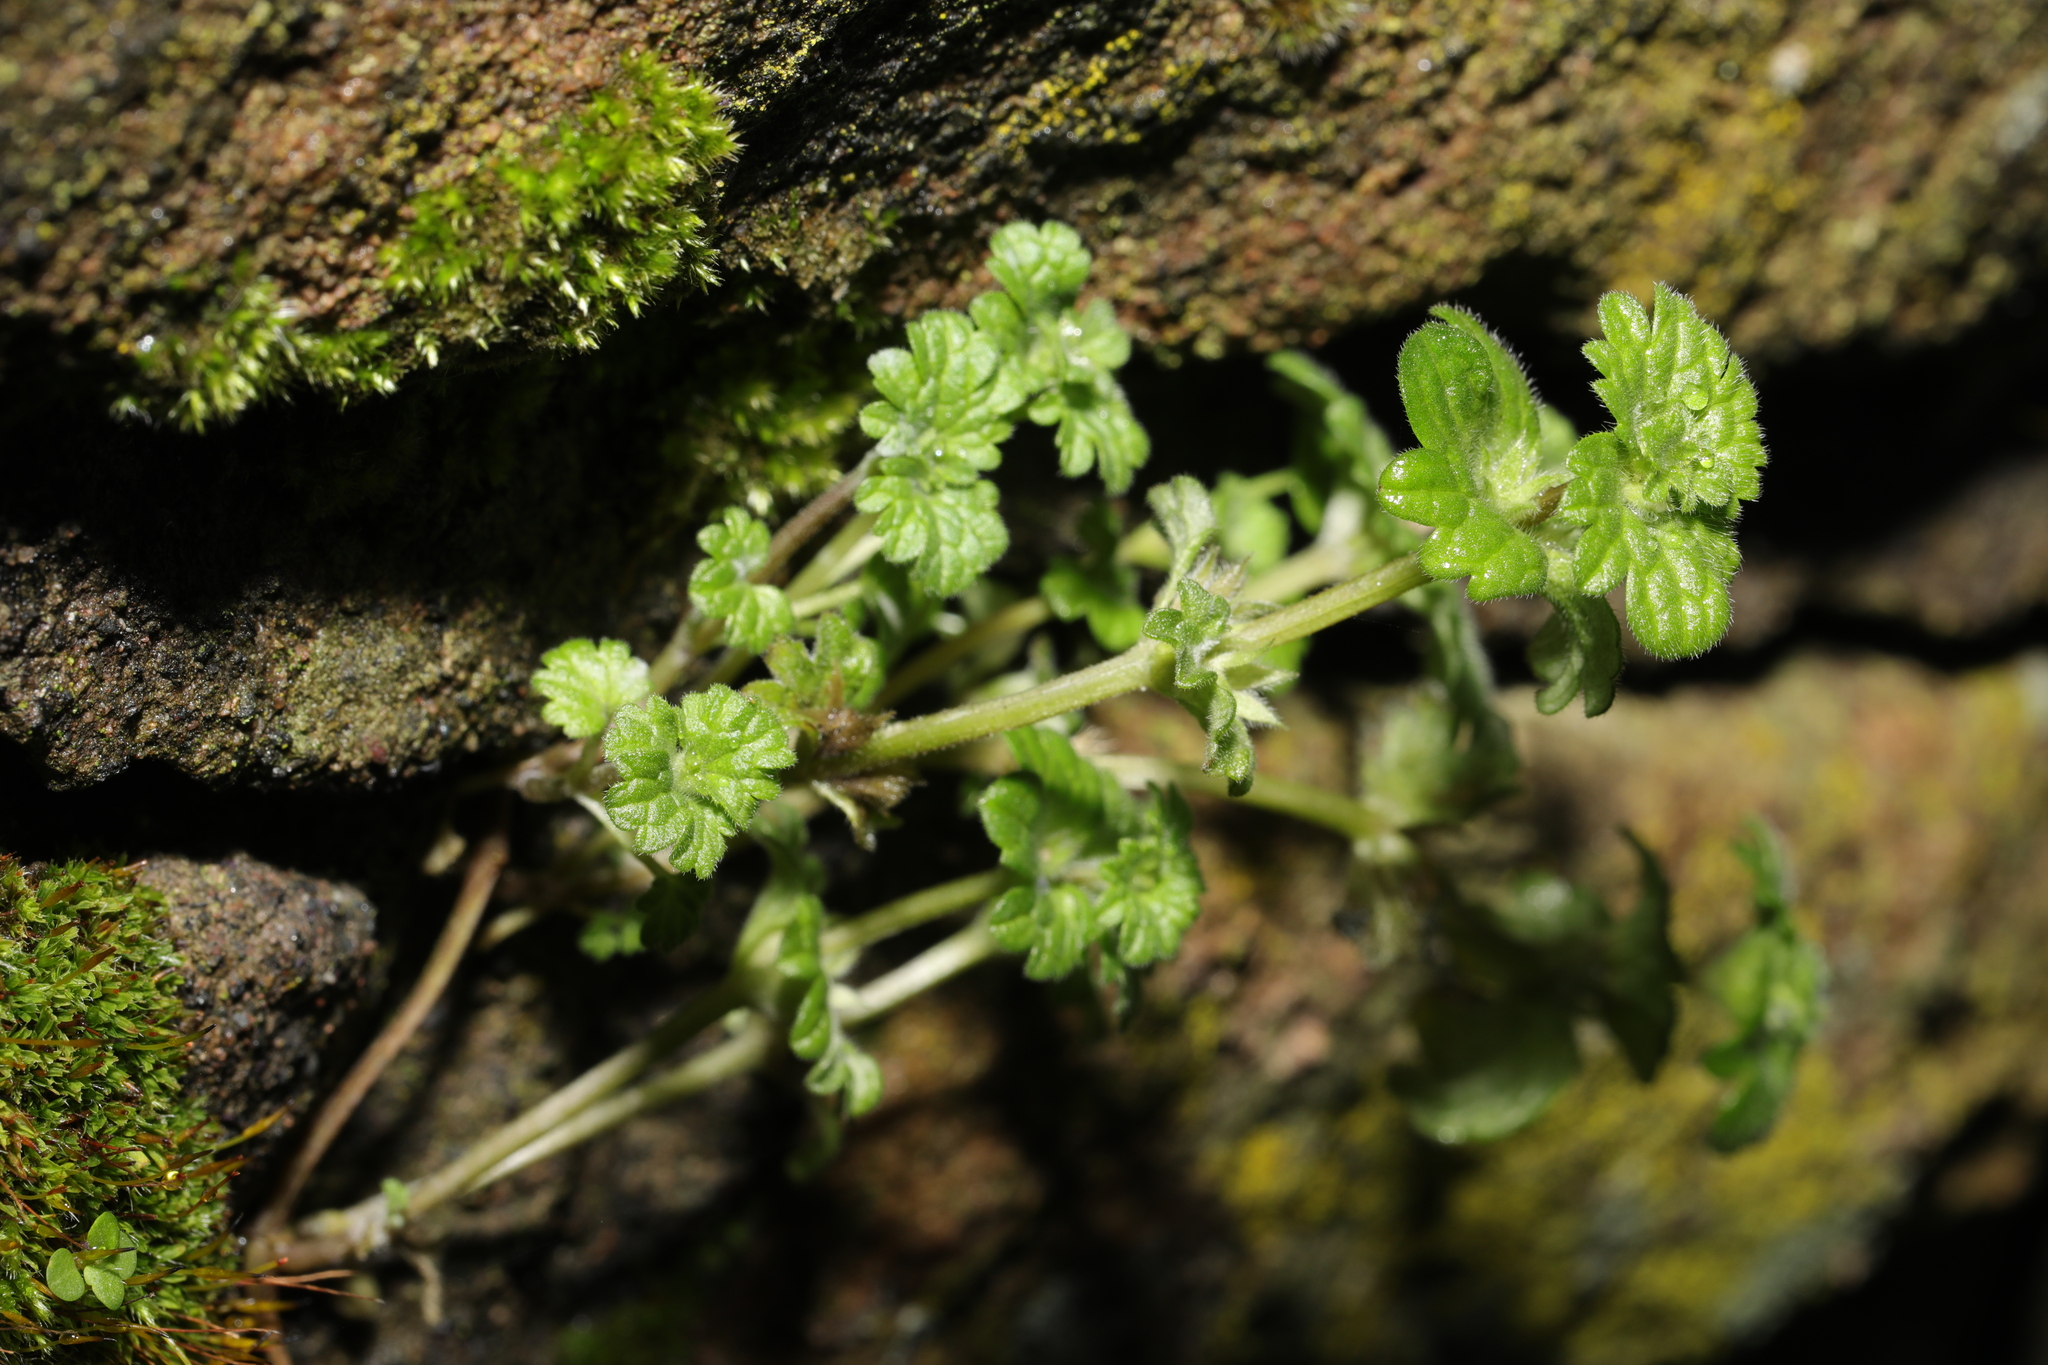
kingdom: Plantae
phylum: Tracheophyta
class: Magnoliopsida
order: Lamiales
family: Lamiaceae
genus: Lamium
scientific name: Lamium amplexicaule
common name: Henbit dead-nettle
